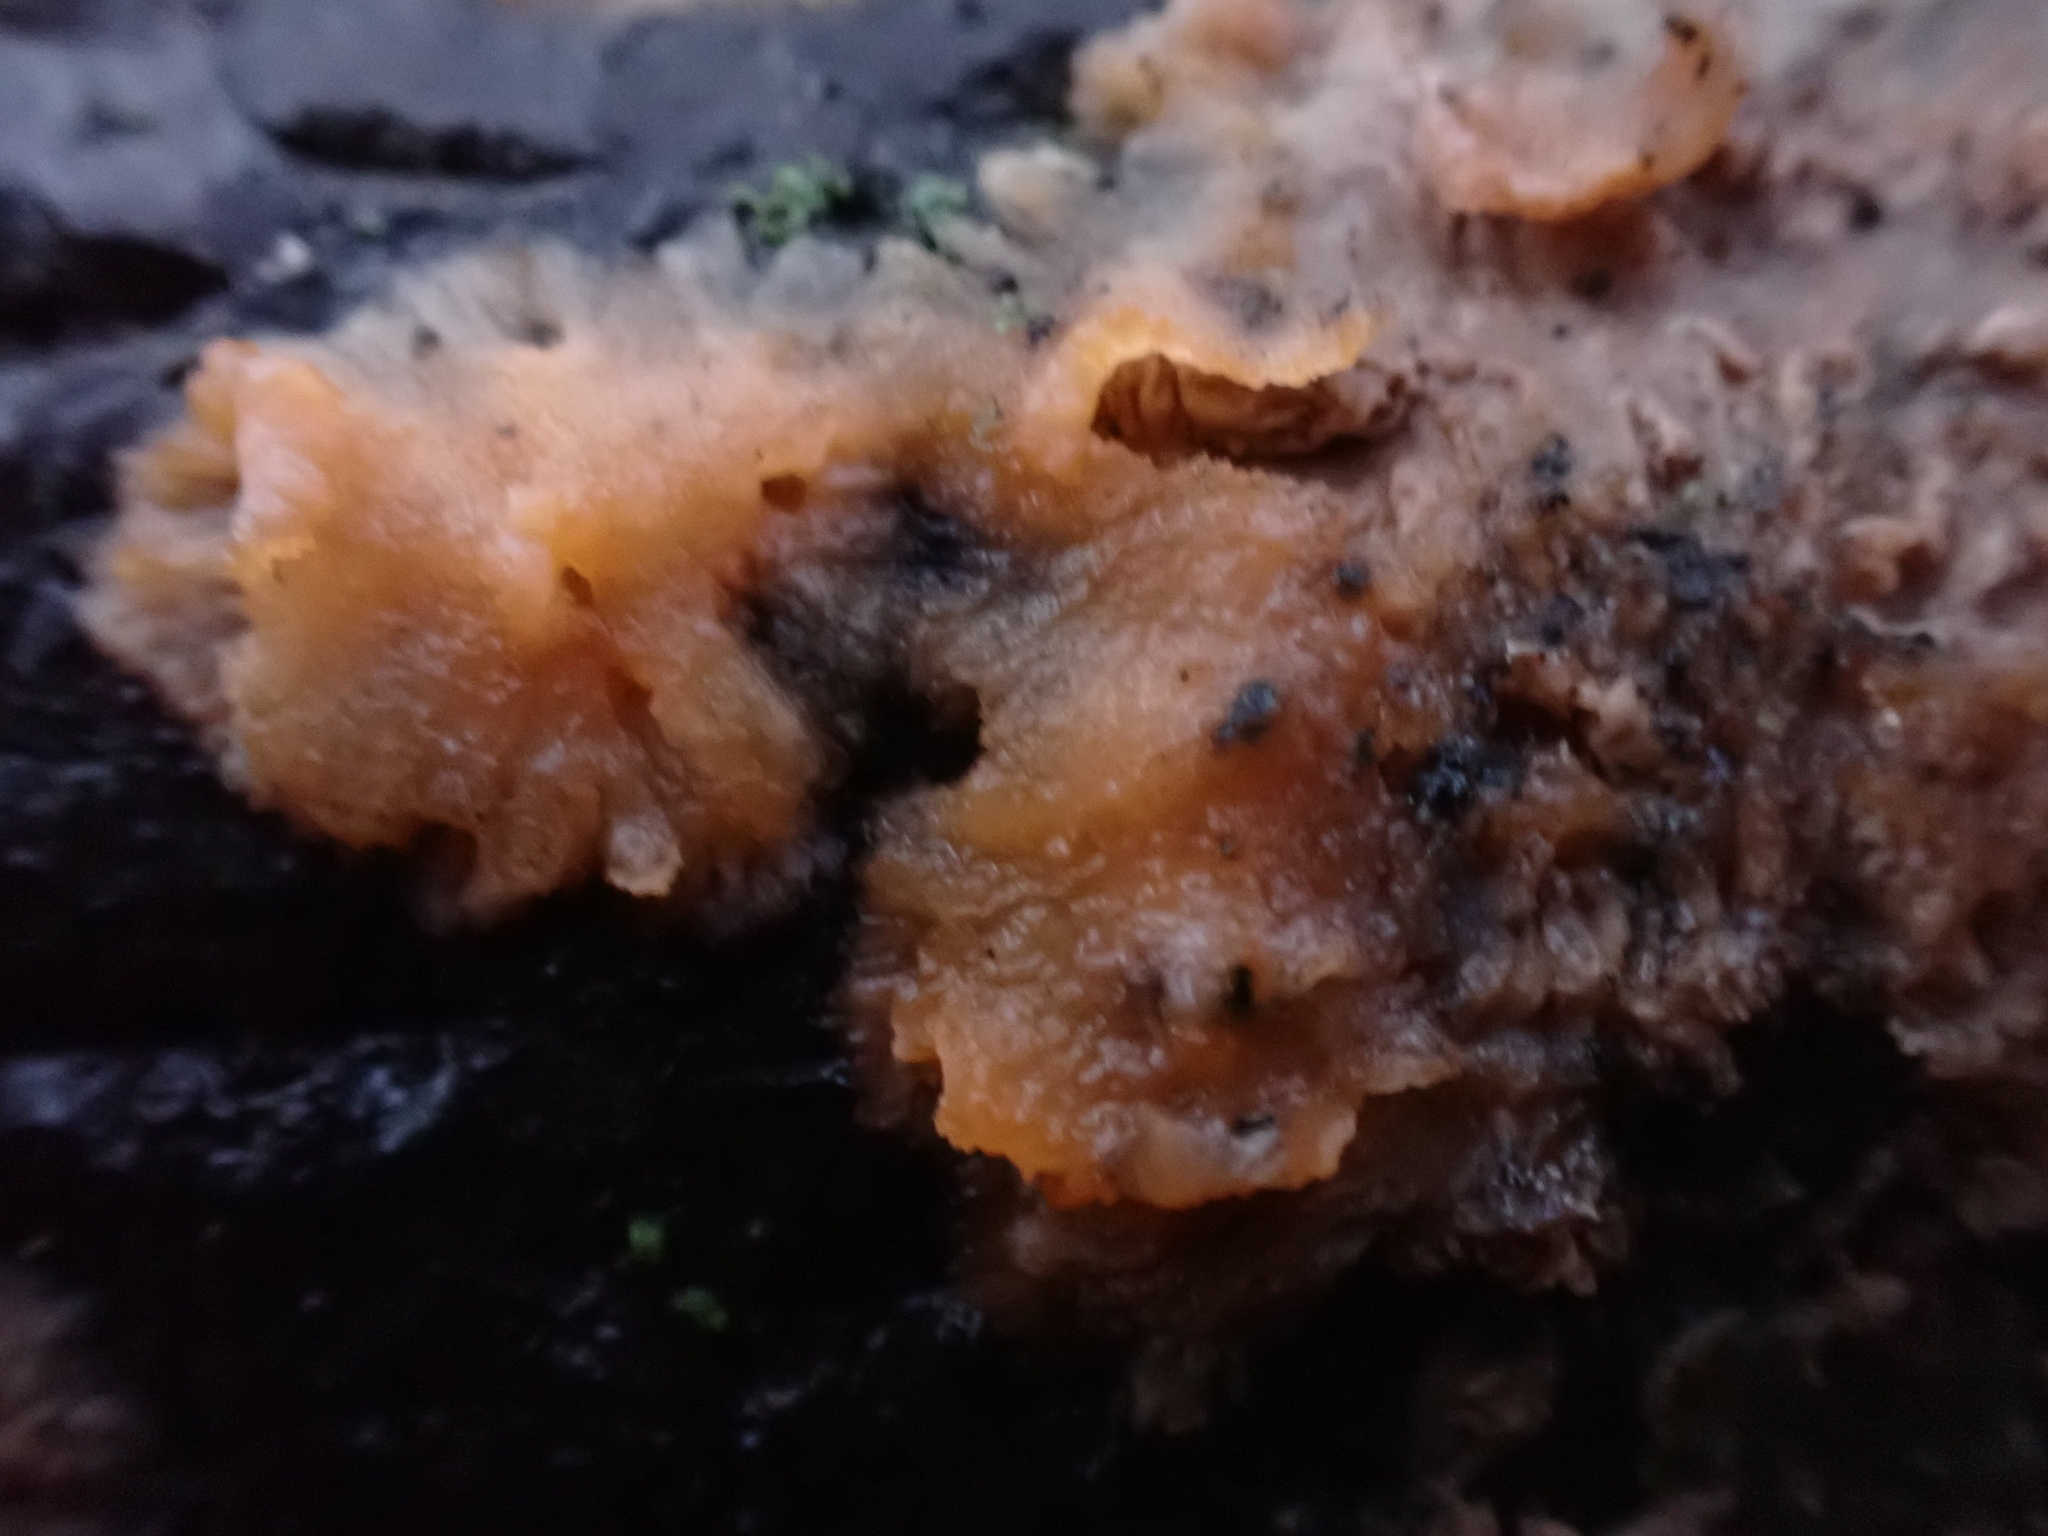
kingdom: Fungi
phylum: Basidiomycota
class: Agaricomycetes
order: Polyporales
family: Meruliaceae
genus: Phlebia
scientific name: Phlebia radiata
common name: Wrinkled crust
